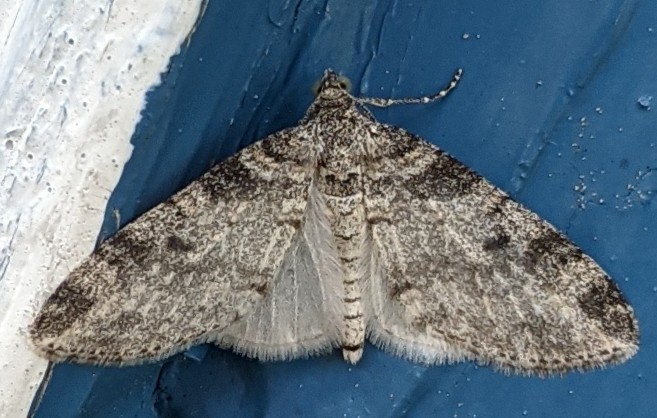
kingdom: Animalia
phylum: Arthropoda
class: Insecta
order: Lepidoptera
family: Geometridae
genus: Lobophora
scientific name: Lobophora nivigerata
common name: Powdered bigwing
